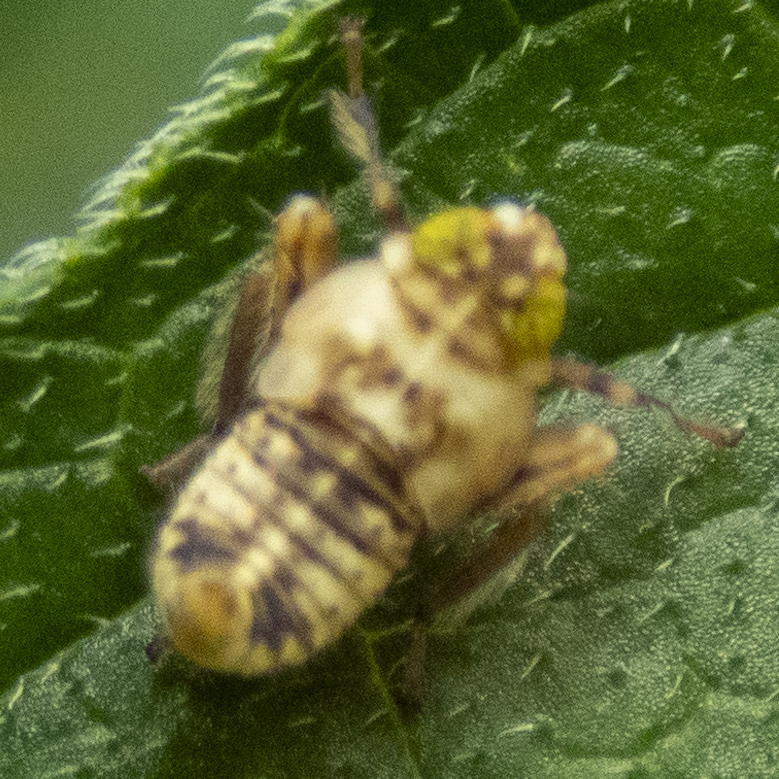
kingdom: Animalia
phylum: Arthropoda
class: Insecta
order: Hemiptera
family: Cicadellidae
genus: Jikradia
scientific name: Jikradia olitoria
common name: Coppery leafhopper
